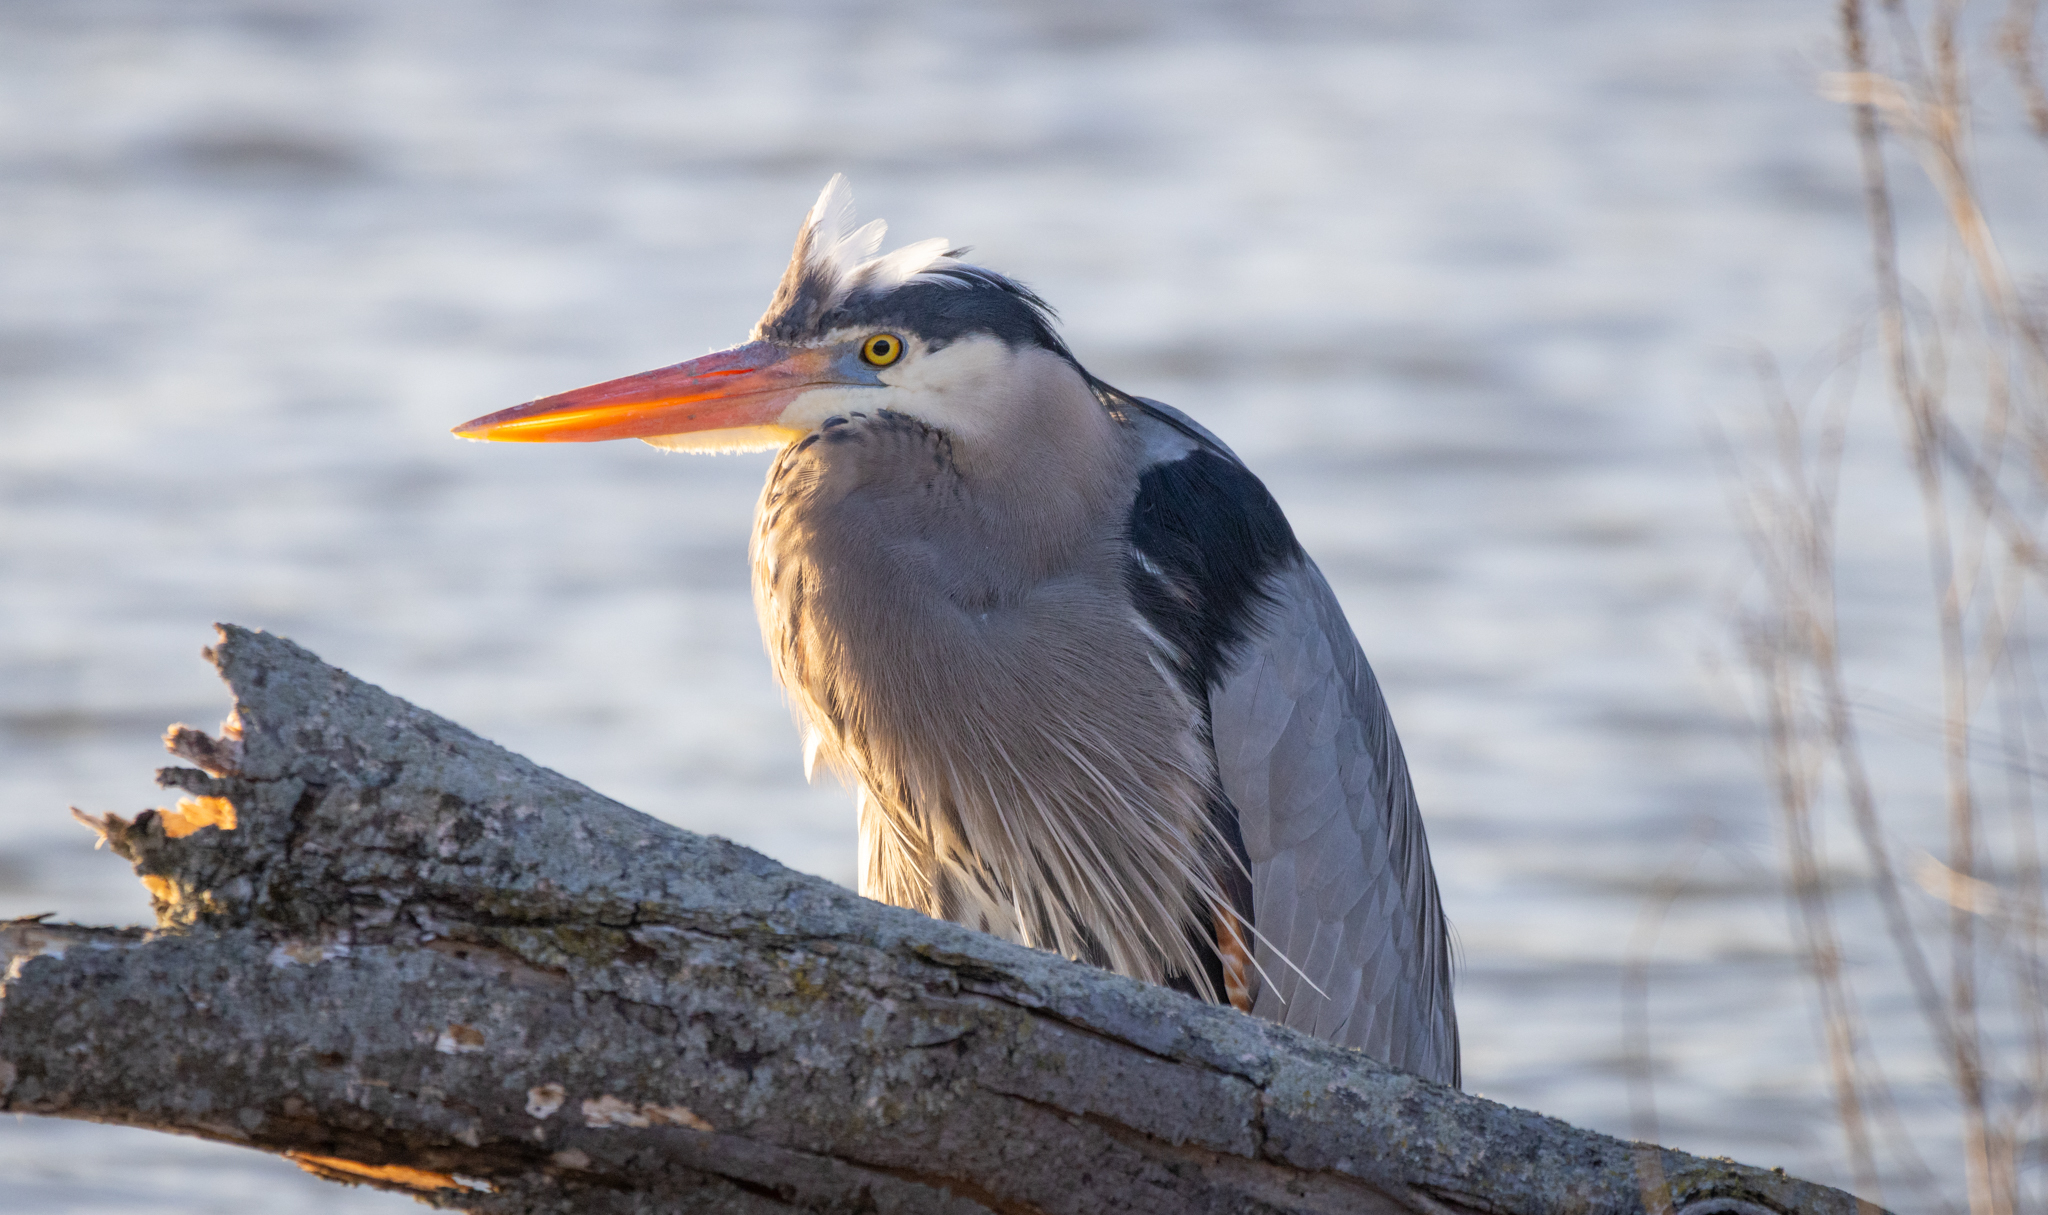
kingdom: Animalia
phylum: Chordata
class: Aves
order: Pelecaniformes
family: Ardeidae
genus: Ardea
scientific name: Ardea herodias
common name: Great blue heron
